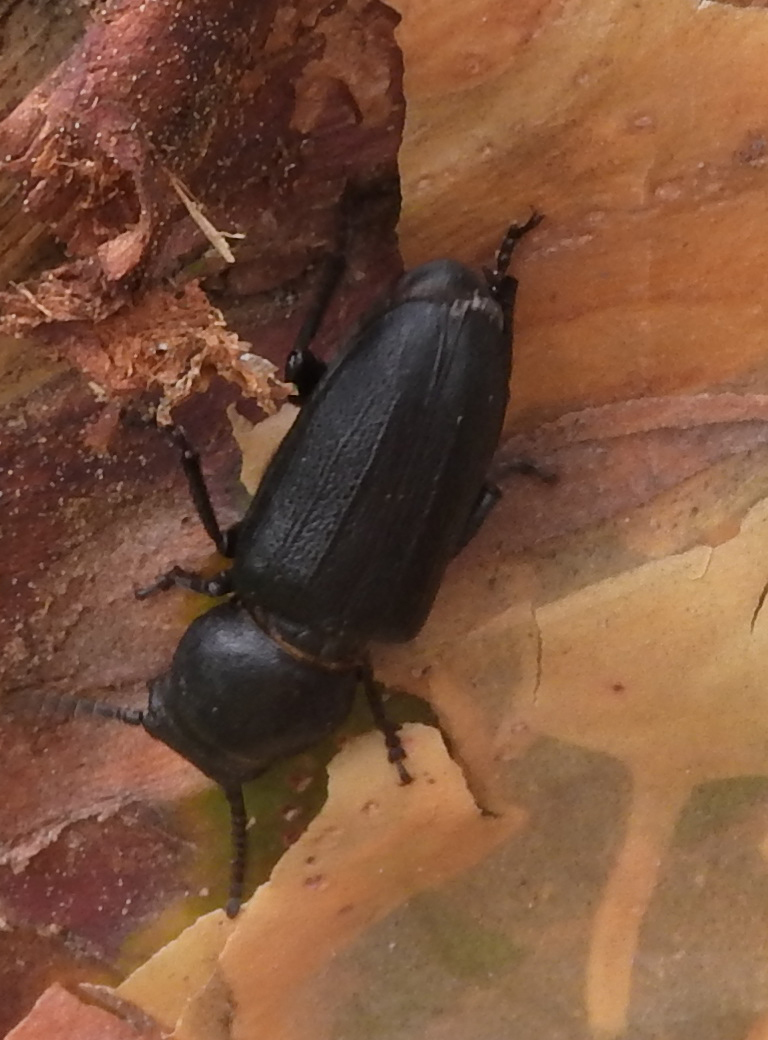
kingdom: Animalia
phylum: Arthropoda
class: Insecta
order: Coleoptera
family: Cerambycidae
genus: Spondylis
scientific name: Spondylis buprestoides
